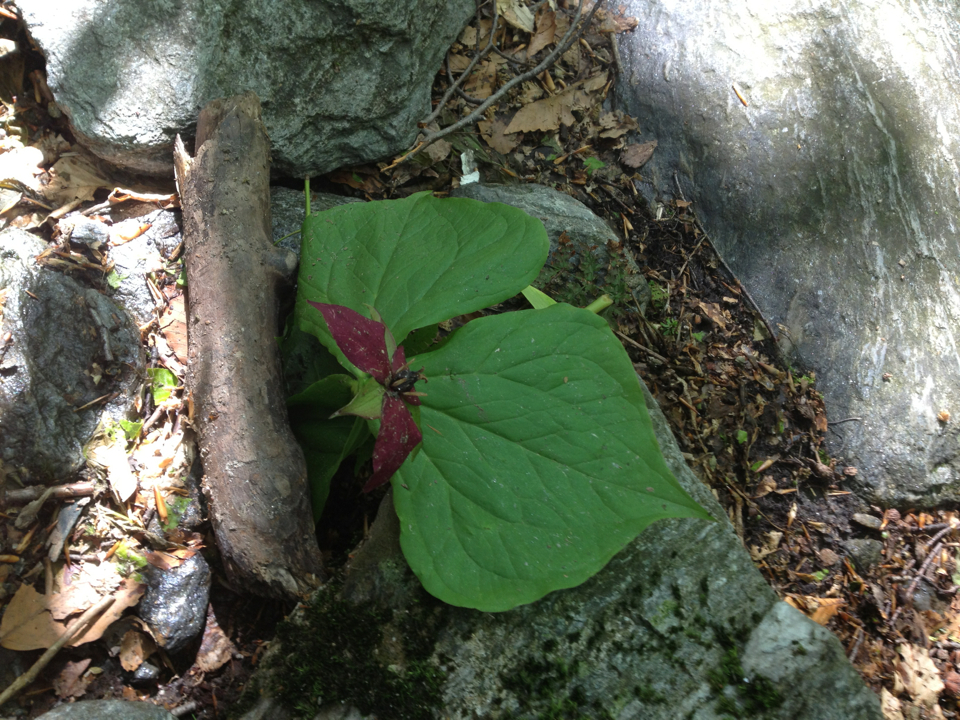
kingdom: Plantae
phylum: Tracheophyta
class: Liliopsida
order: Liliales
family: Melanthiaceae
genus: Trillium
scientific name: Trillium erectum
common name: Purple trillium
